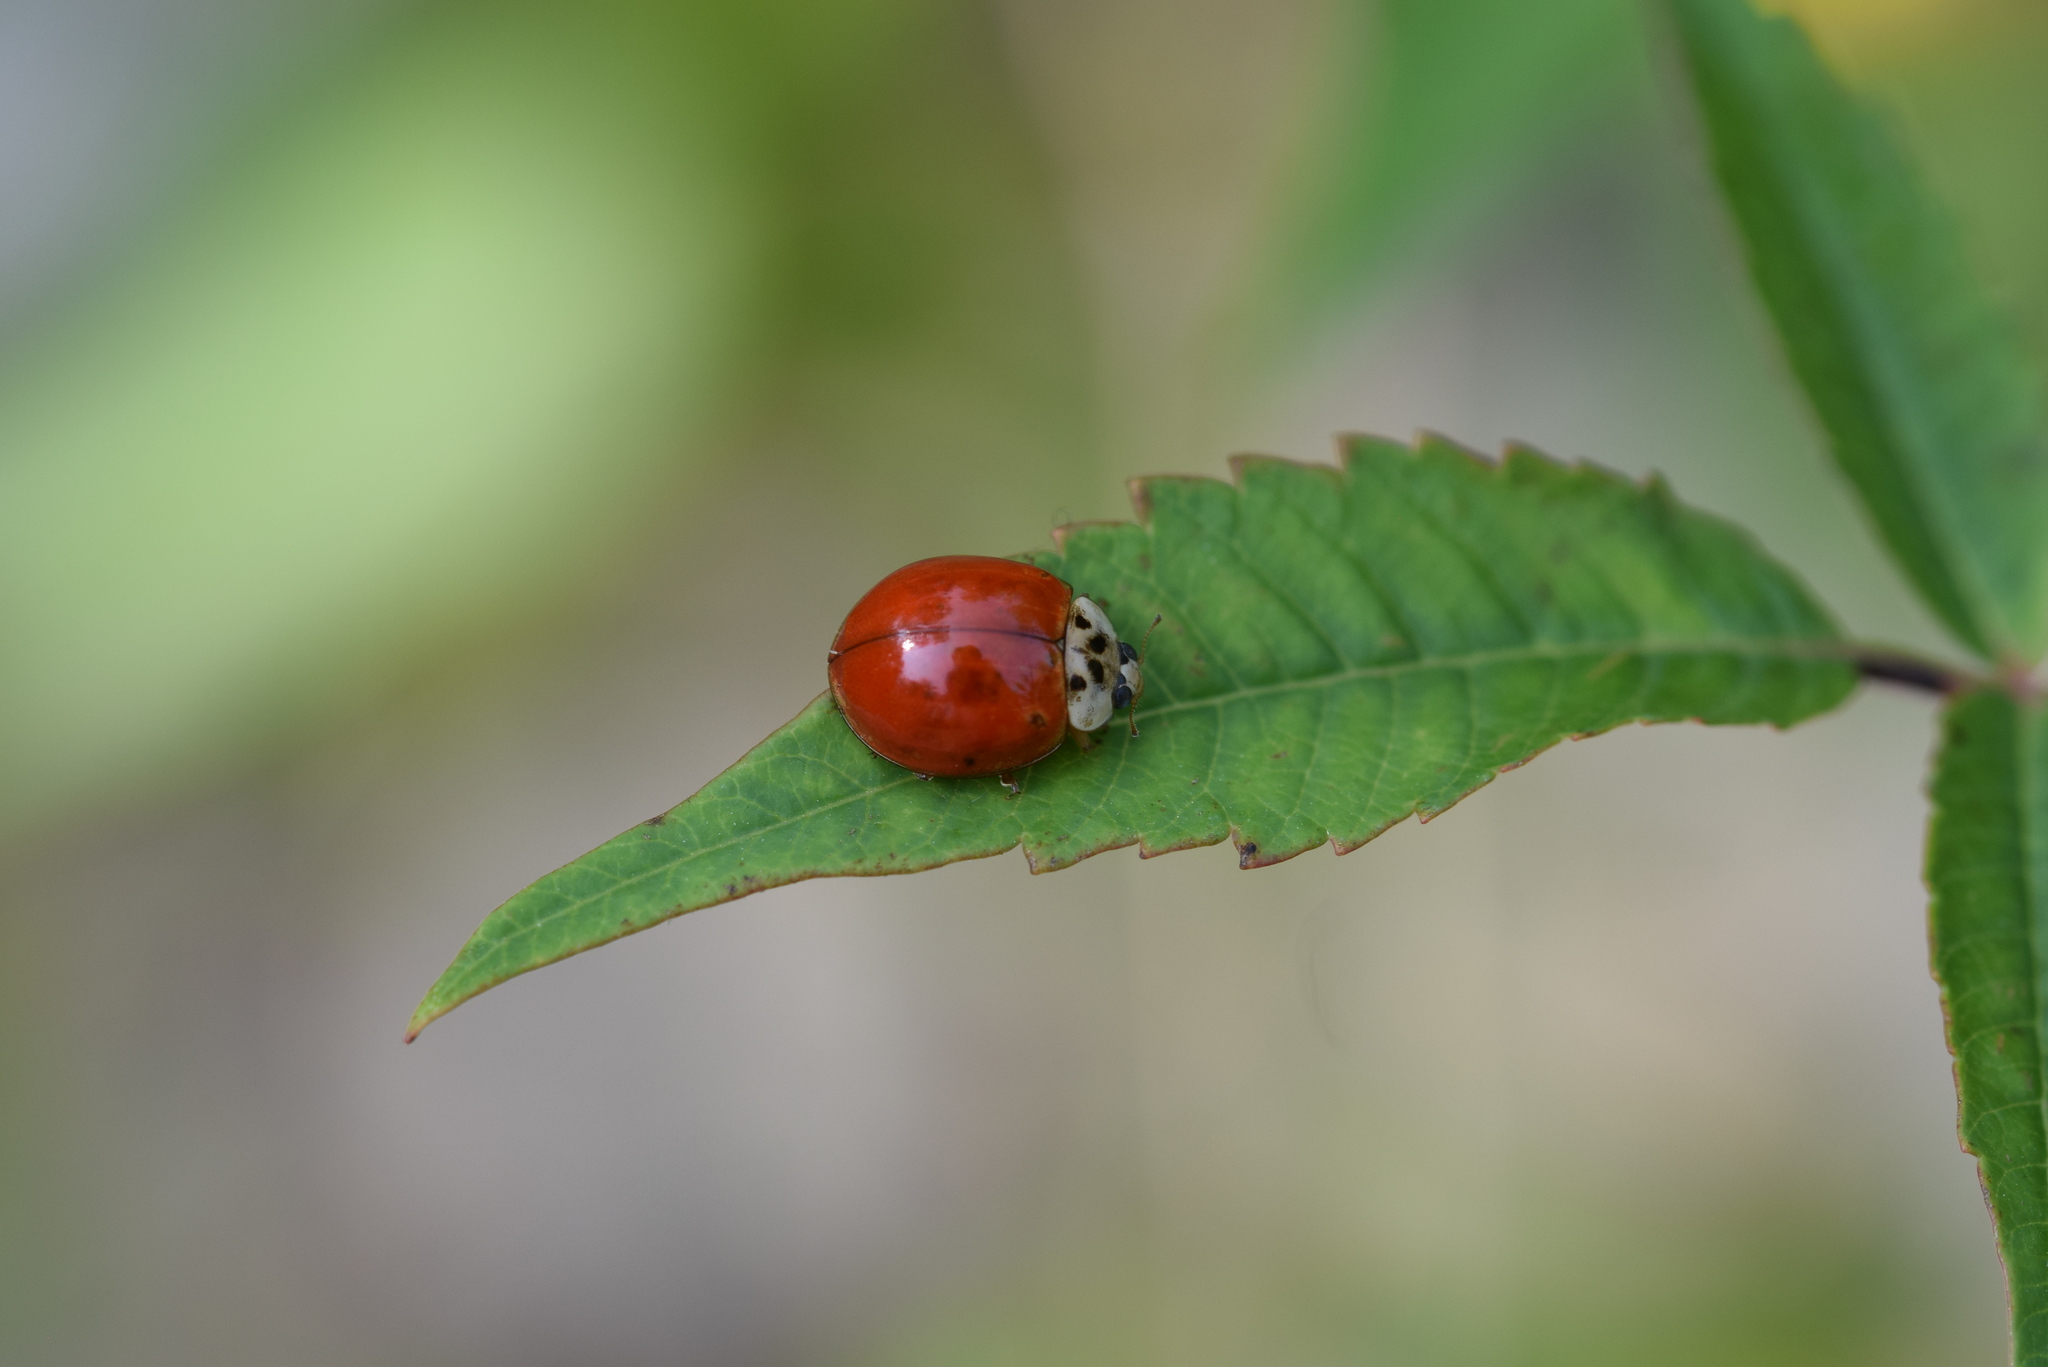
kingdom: Animalia
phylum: Arthropoda
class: Insecta
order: Coleoptera
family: Coccinellidae
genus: Harmonia
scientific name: Harmonia axyridis
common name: Harlequin ladybird
